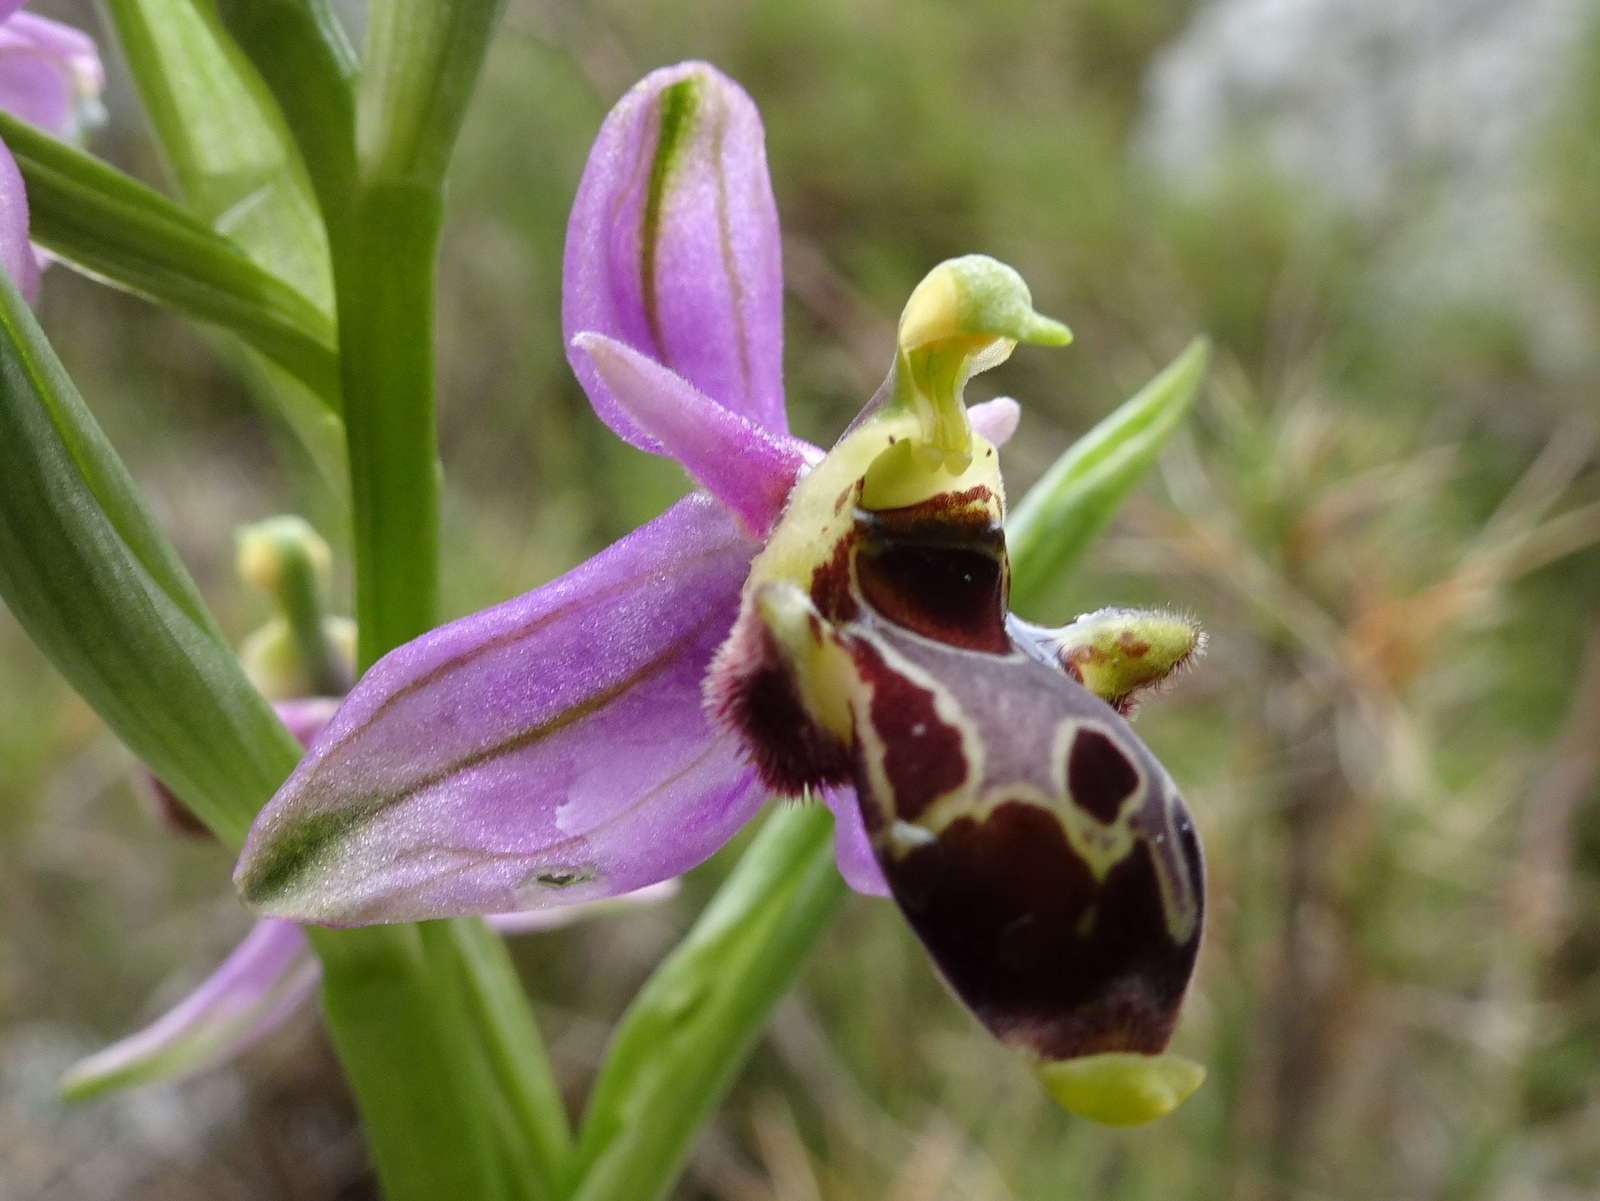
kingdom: Plantae
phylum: Tracheophyta
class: Liliopsida
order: Asparagales
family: Orchidaceae
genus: Ophrys
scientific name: Ophrys scolopax
